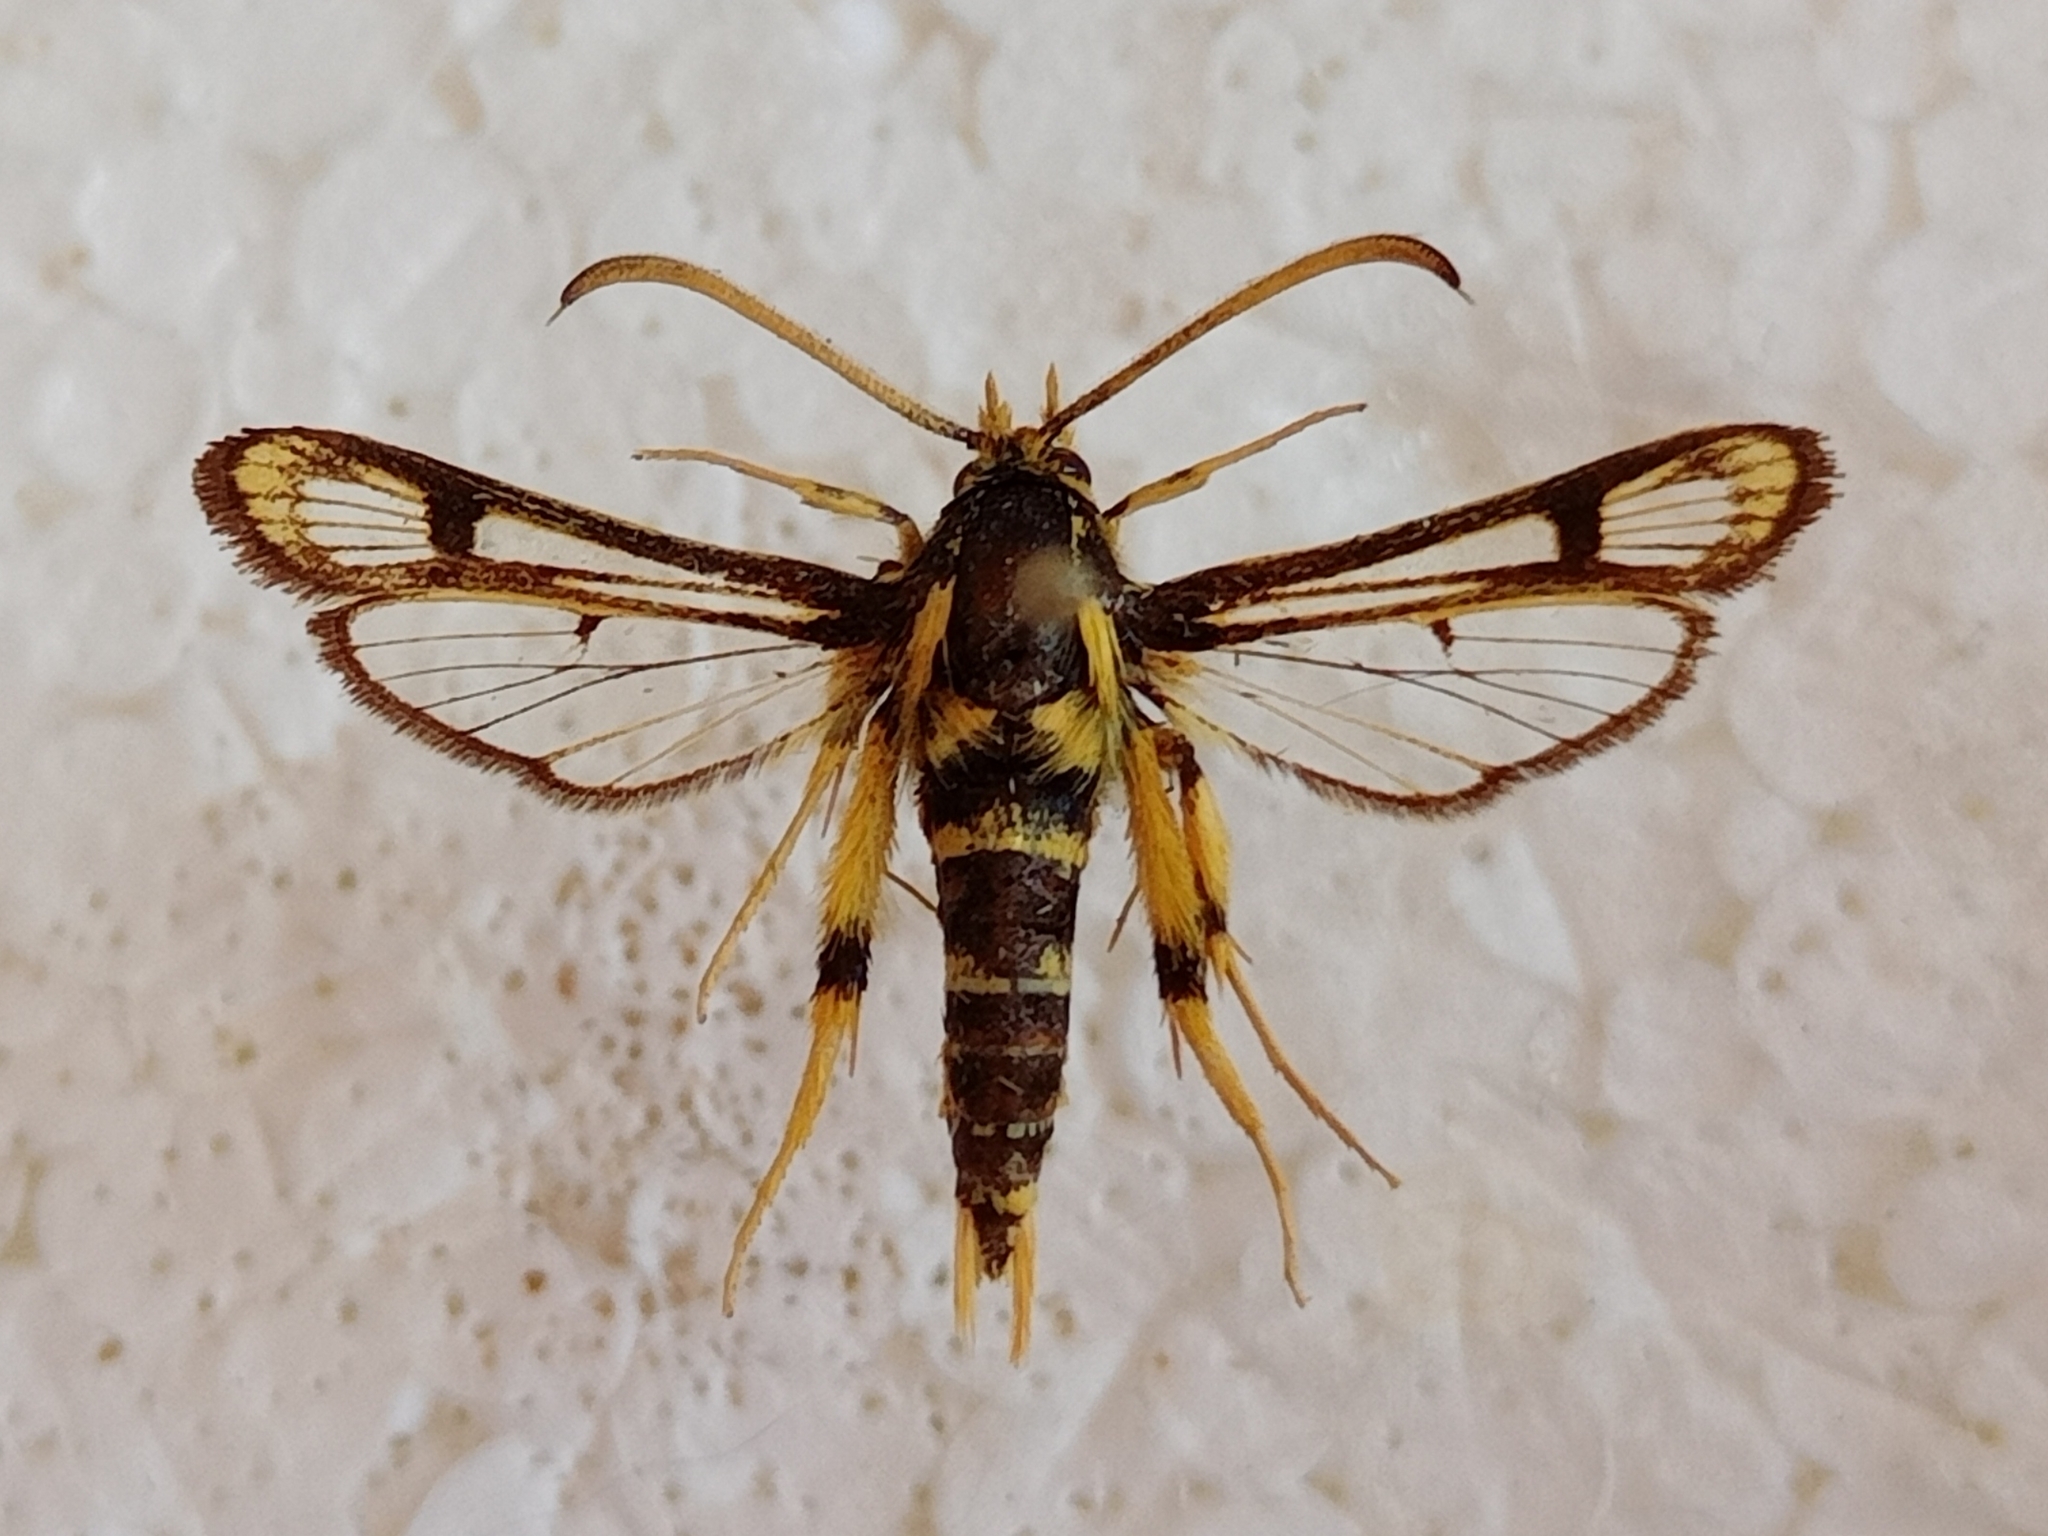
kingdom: Animalia
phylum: Arthropoda
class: Insecta
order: Lepidoptera
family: Sesiidae
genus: Chamaesphecia
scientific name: Chamaesphecia masariformis
